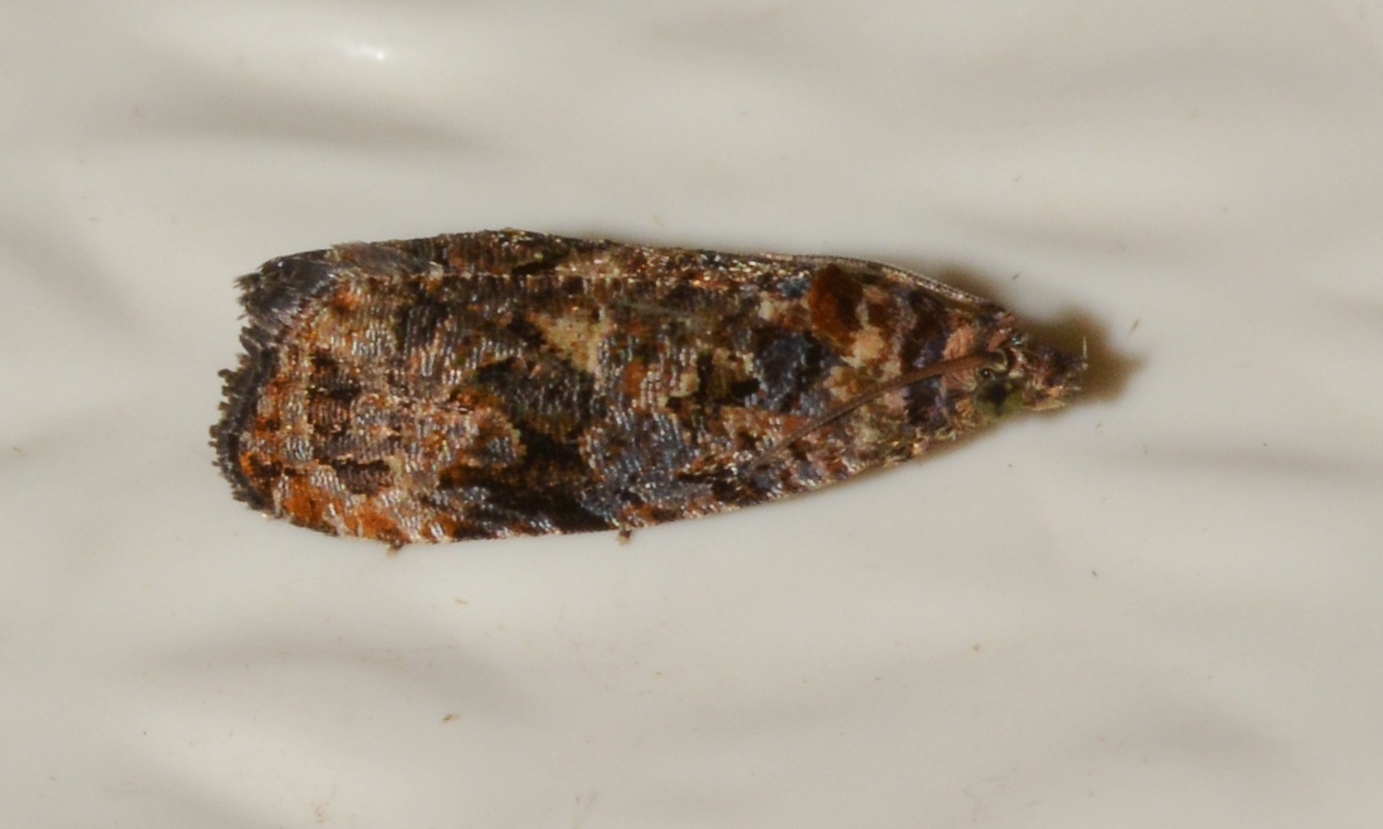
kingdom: Animalia
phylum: Arthropoda
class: Insecta
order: Lepidoptera
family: Tortricidae
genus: Endothenia
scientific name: Endothenia hebesana
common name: Verbena bud moth
